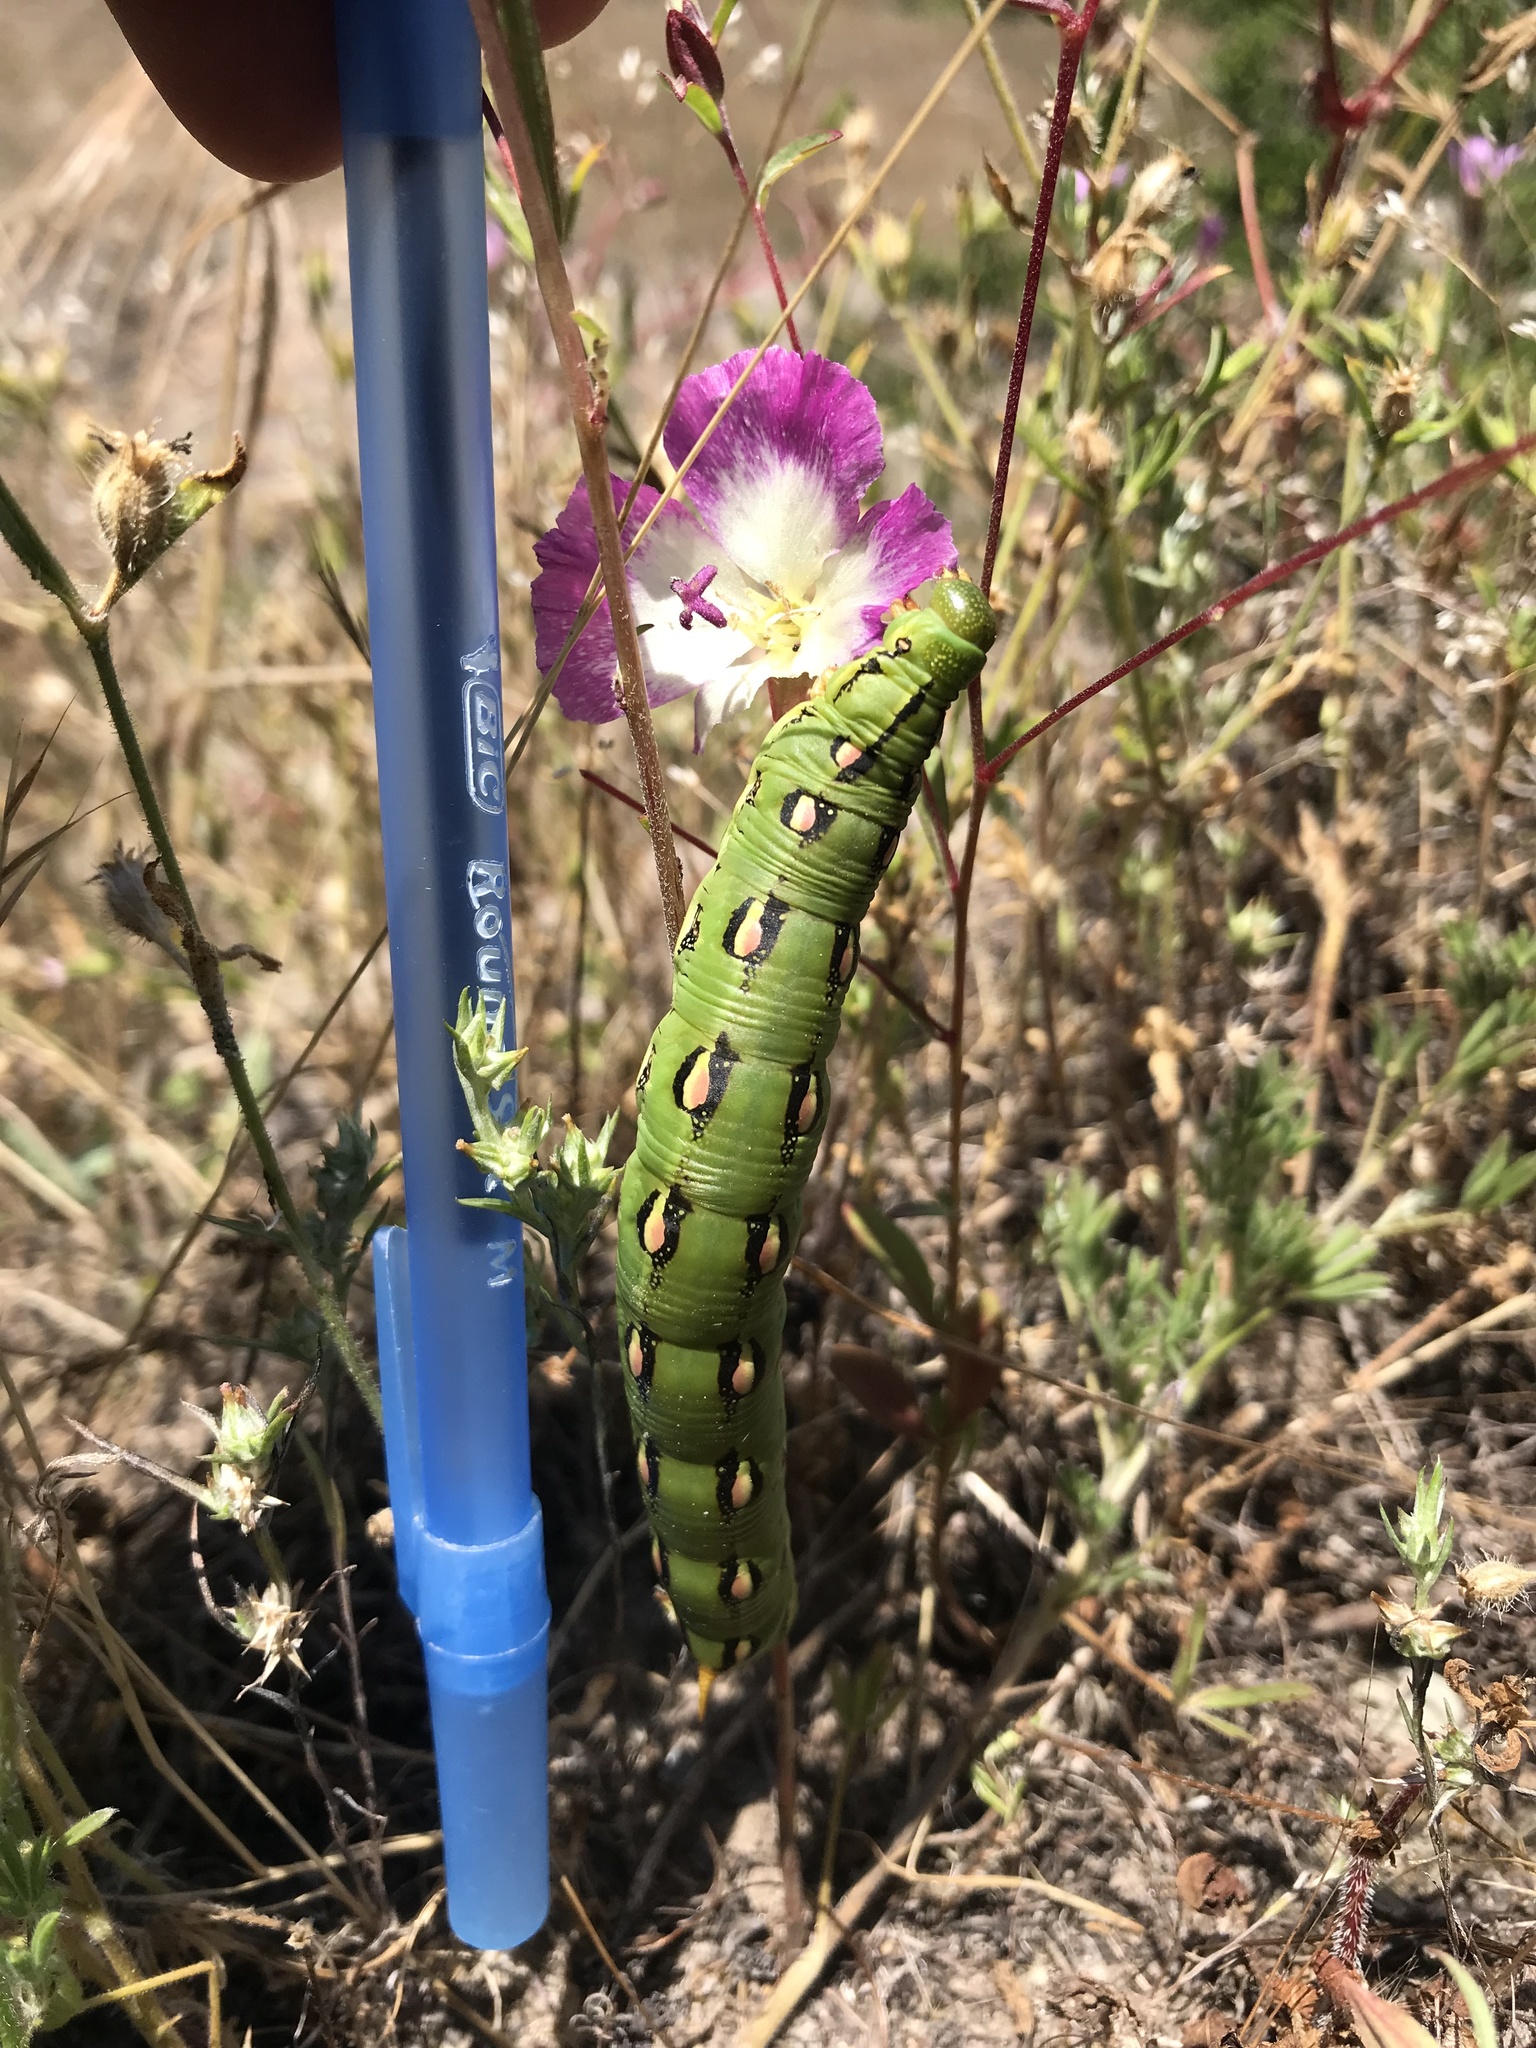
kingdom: Animalia
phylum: Arthropoda
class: Insecta
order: Lepidoptera
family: Sphingidae
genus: Hyles
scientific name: Hyles lineata
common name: White-lined sphinx
